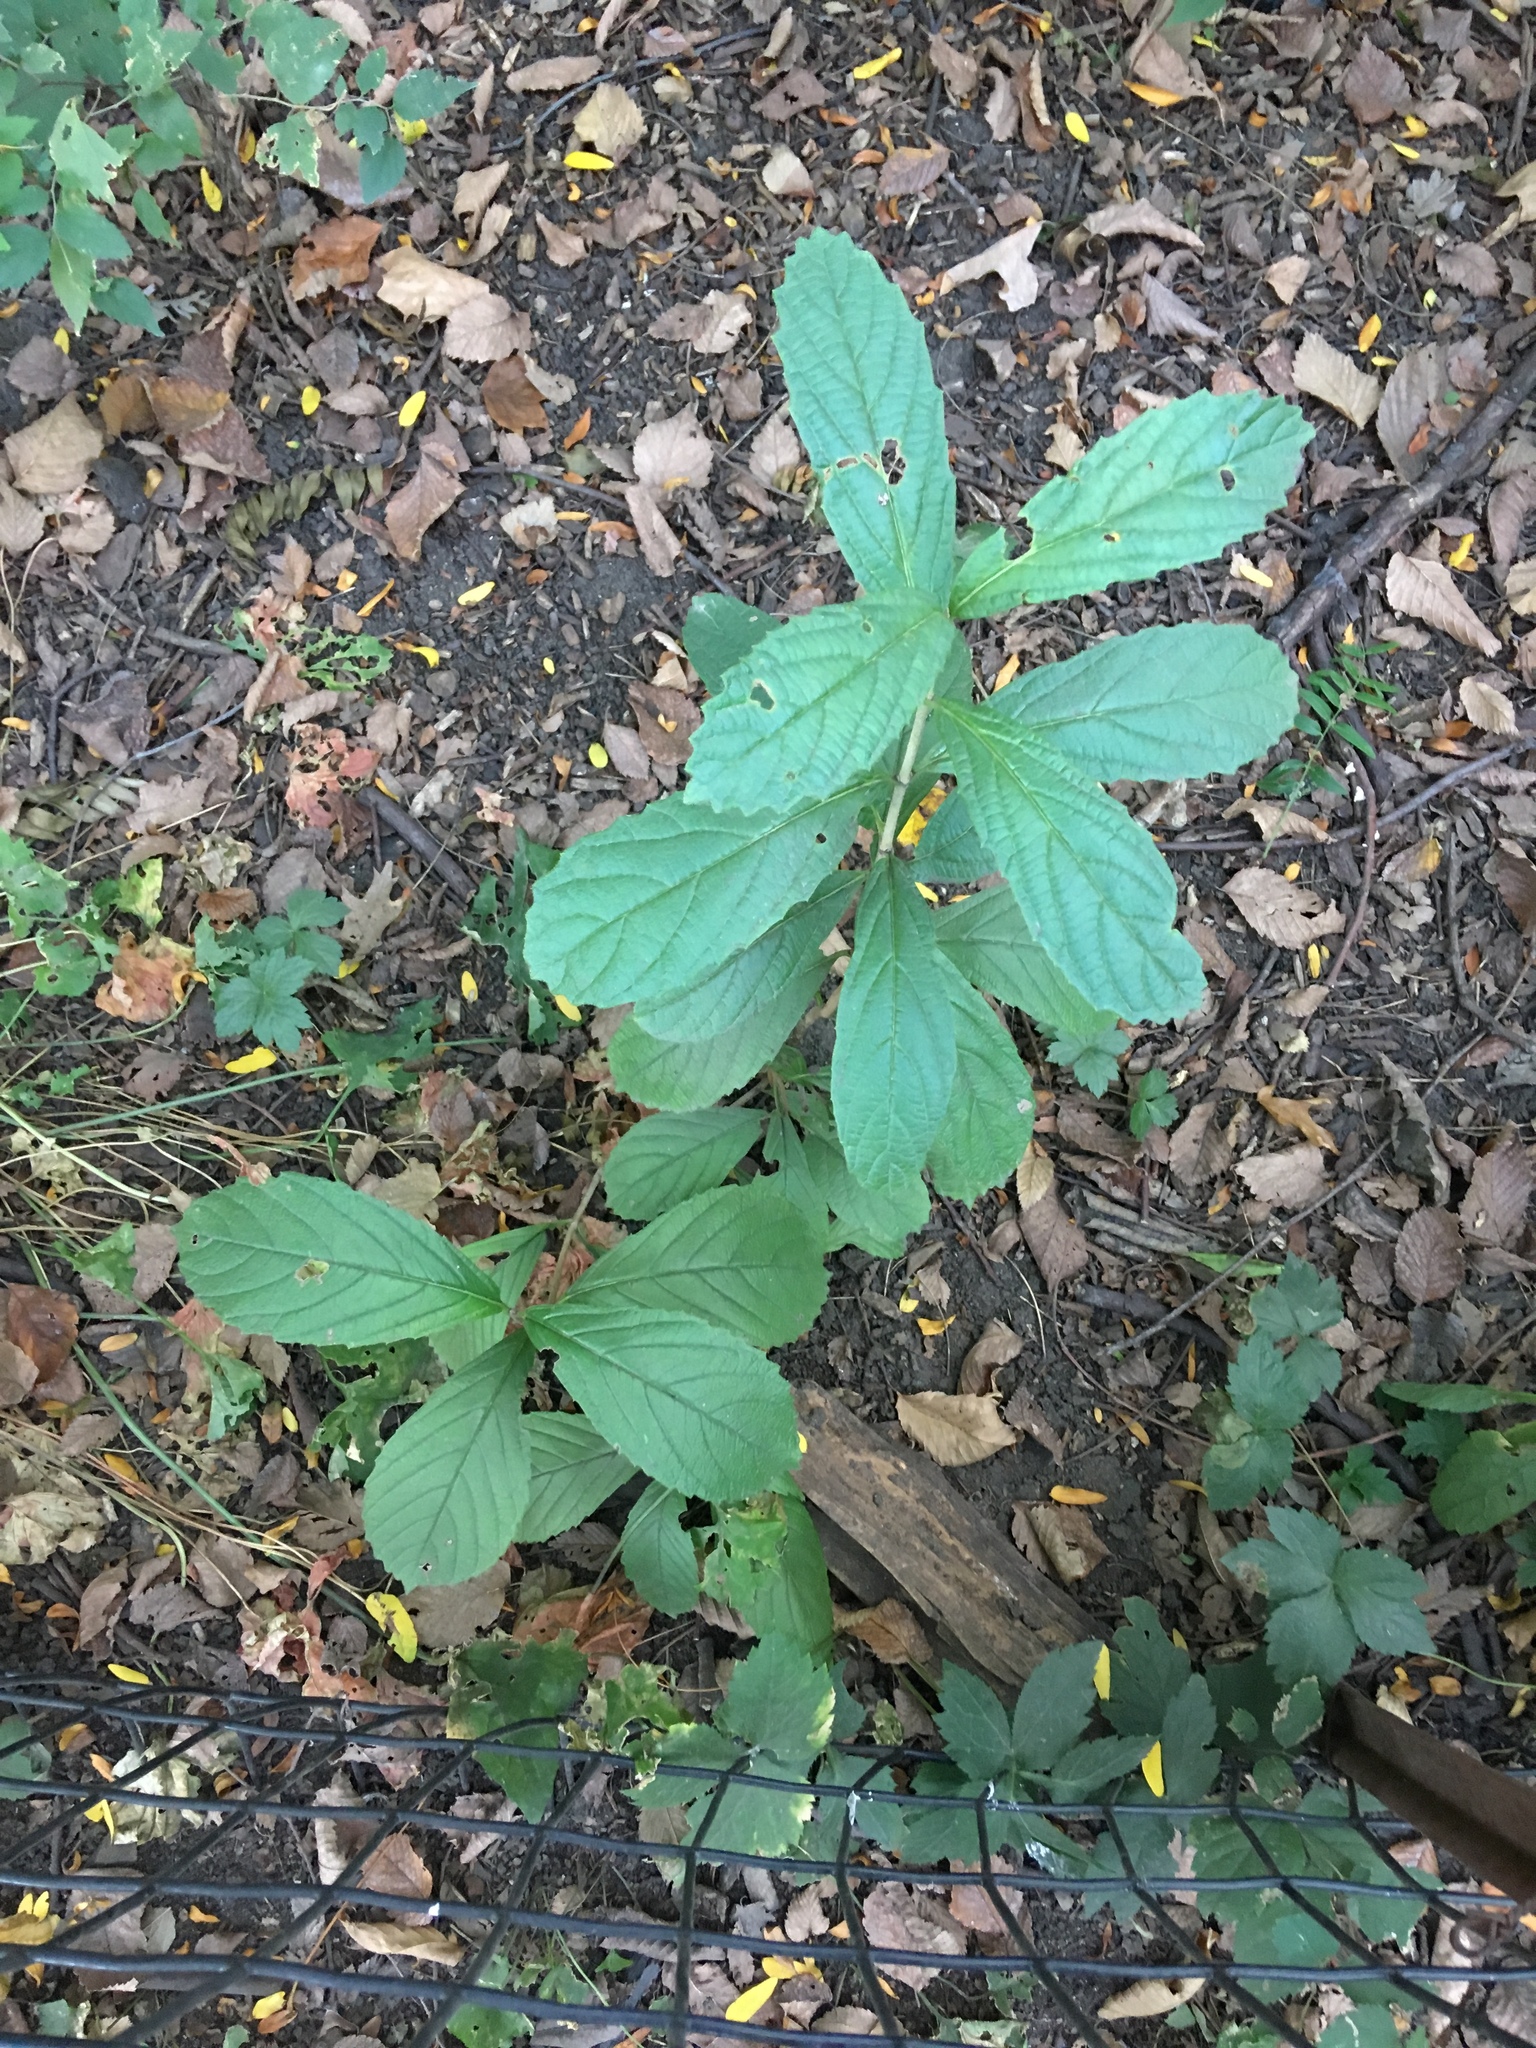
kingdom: Plantae
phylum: Tracheophyta
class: Magnoliopsida
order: Dipsacales
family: Viburnaceae
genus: Viburnum
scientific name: Viburnum sieboldii
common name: Siebold's arrowwood
